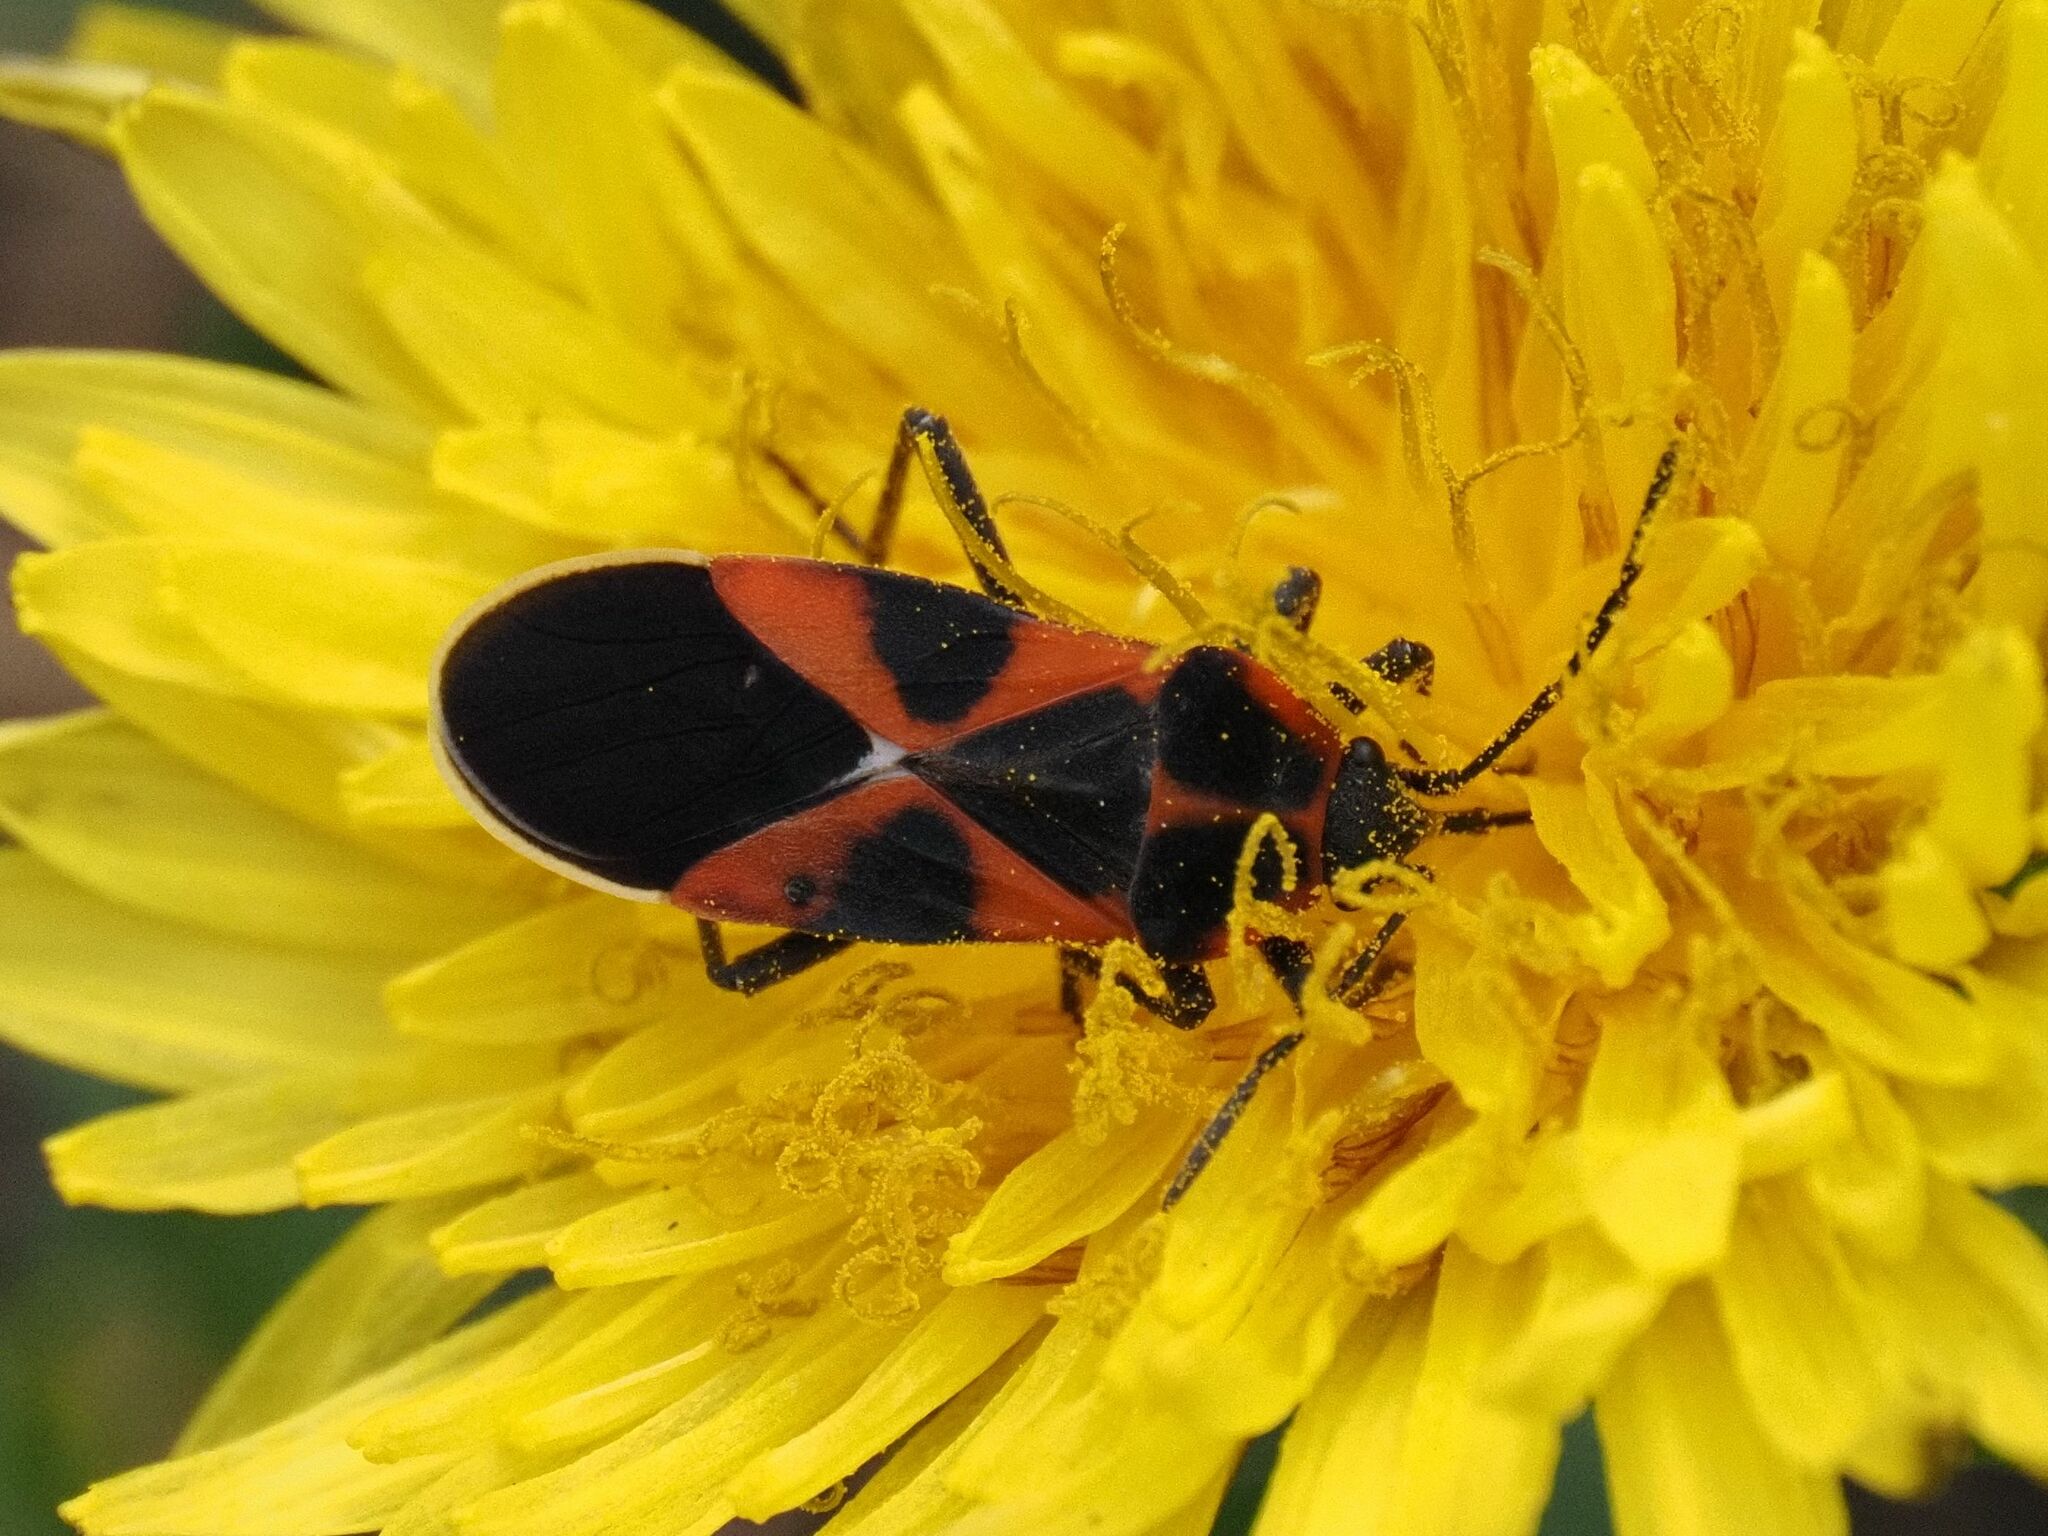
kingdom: Animalia
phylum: Arthropoda
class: Insecta
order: Hemiptera
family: Lygaeidae
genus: Tropidothorax
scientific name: Tropidothorax leucopterus
